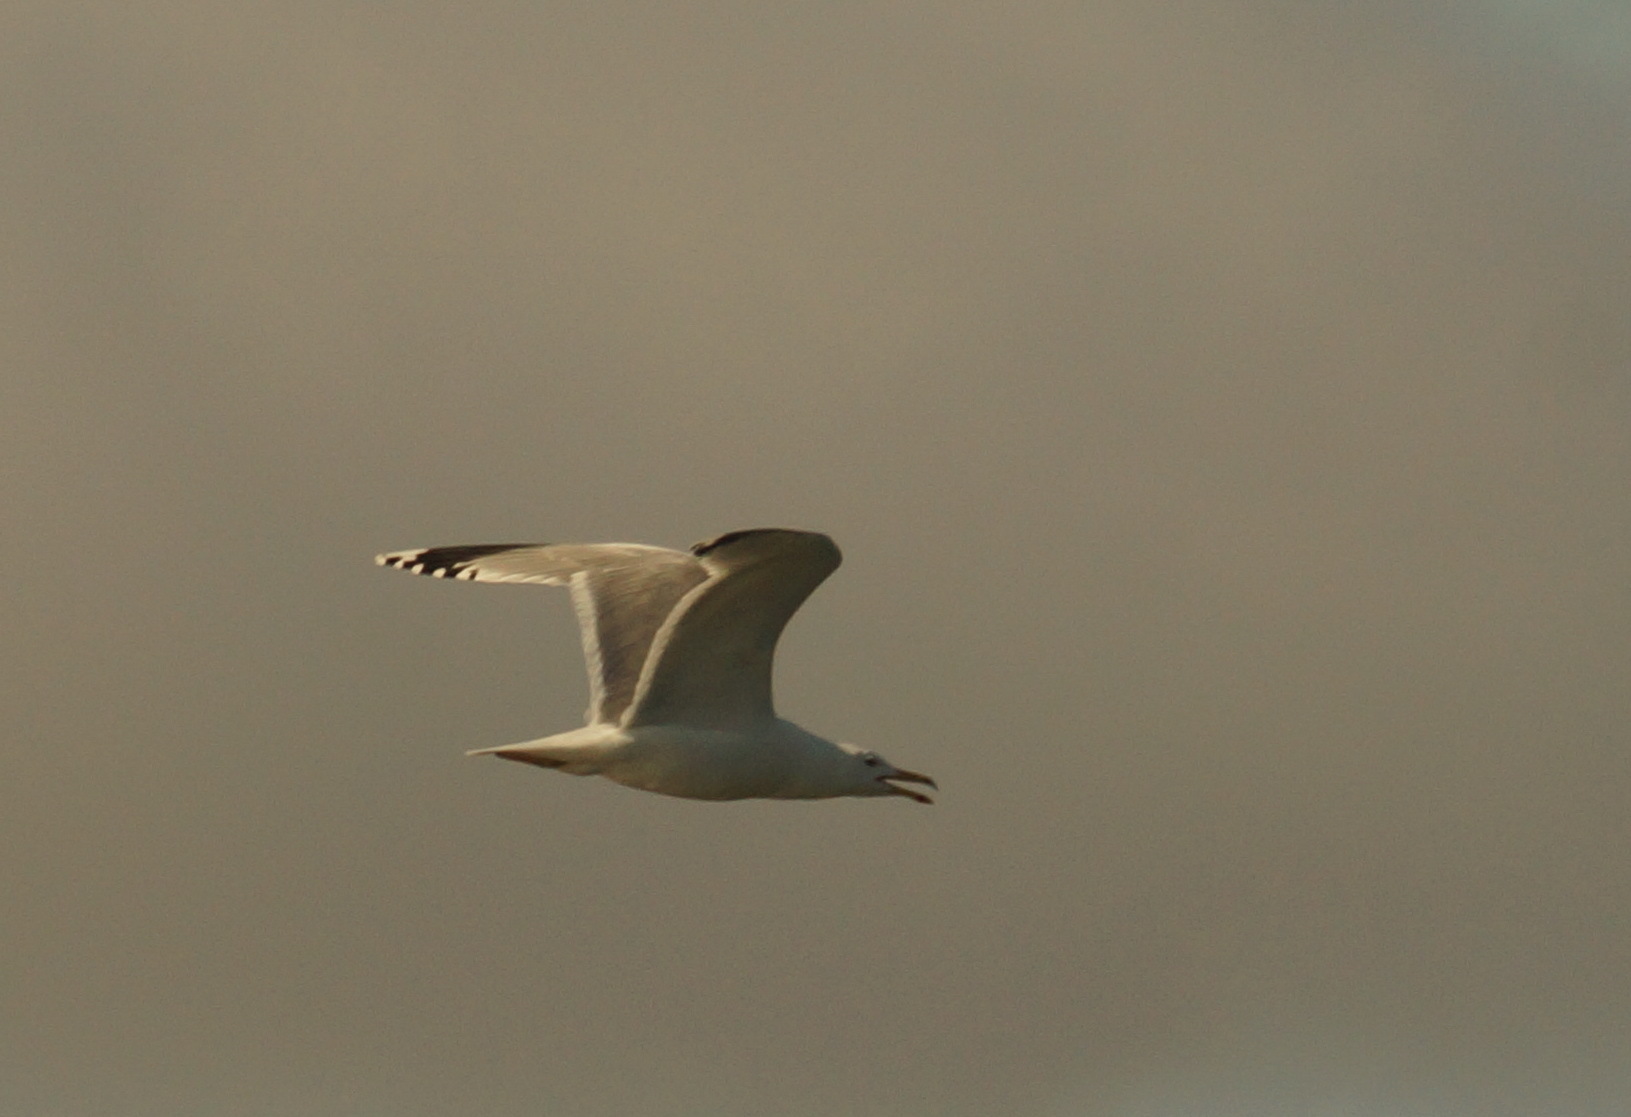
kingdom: Animalia
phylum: Chordata
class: Aves
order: Charadriiformes
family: Laridae
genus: Larus
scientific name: Larus cachinnans
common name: Caspian gull
